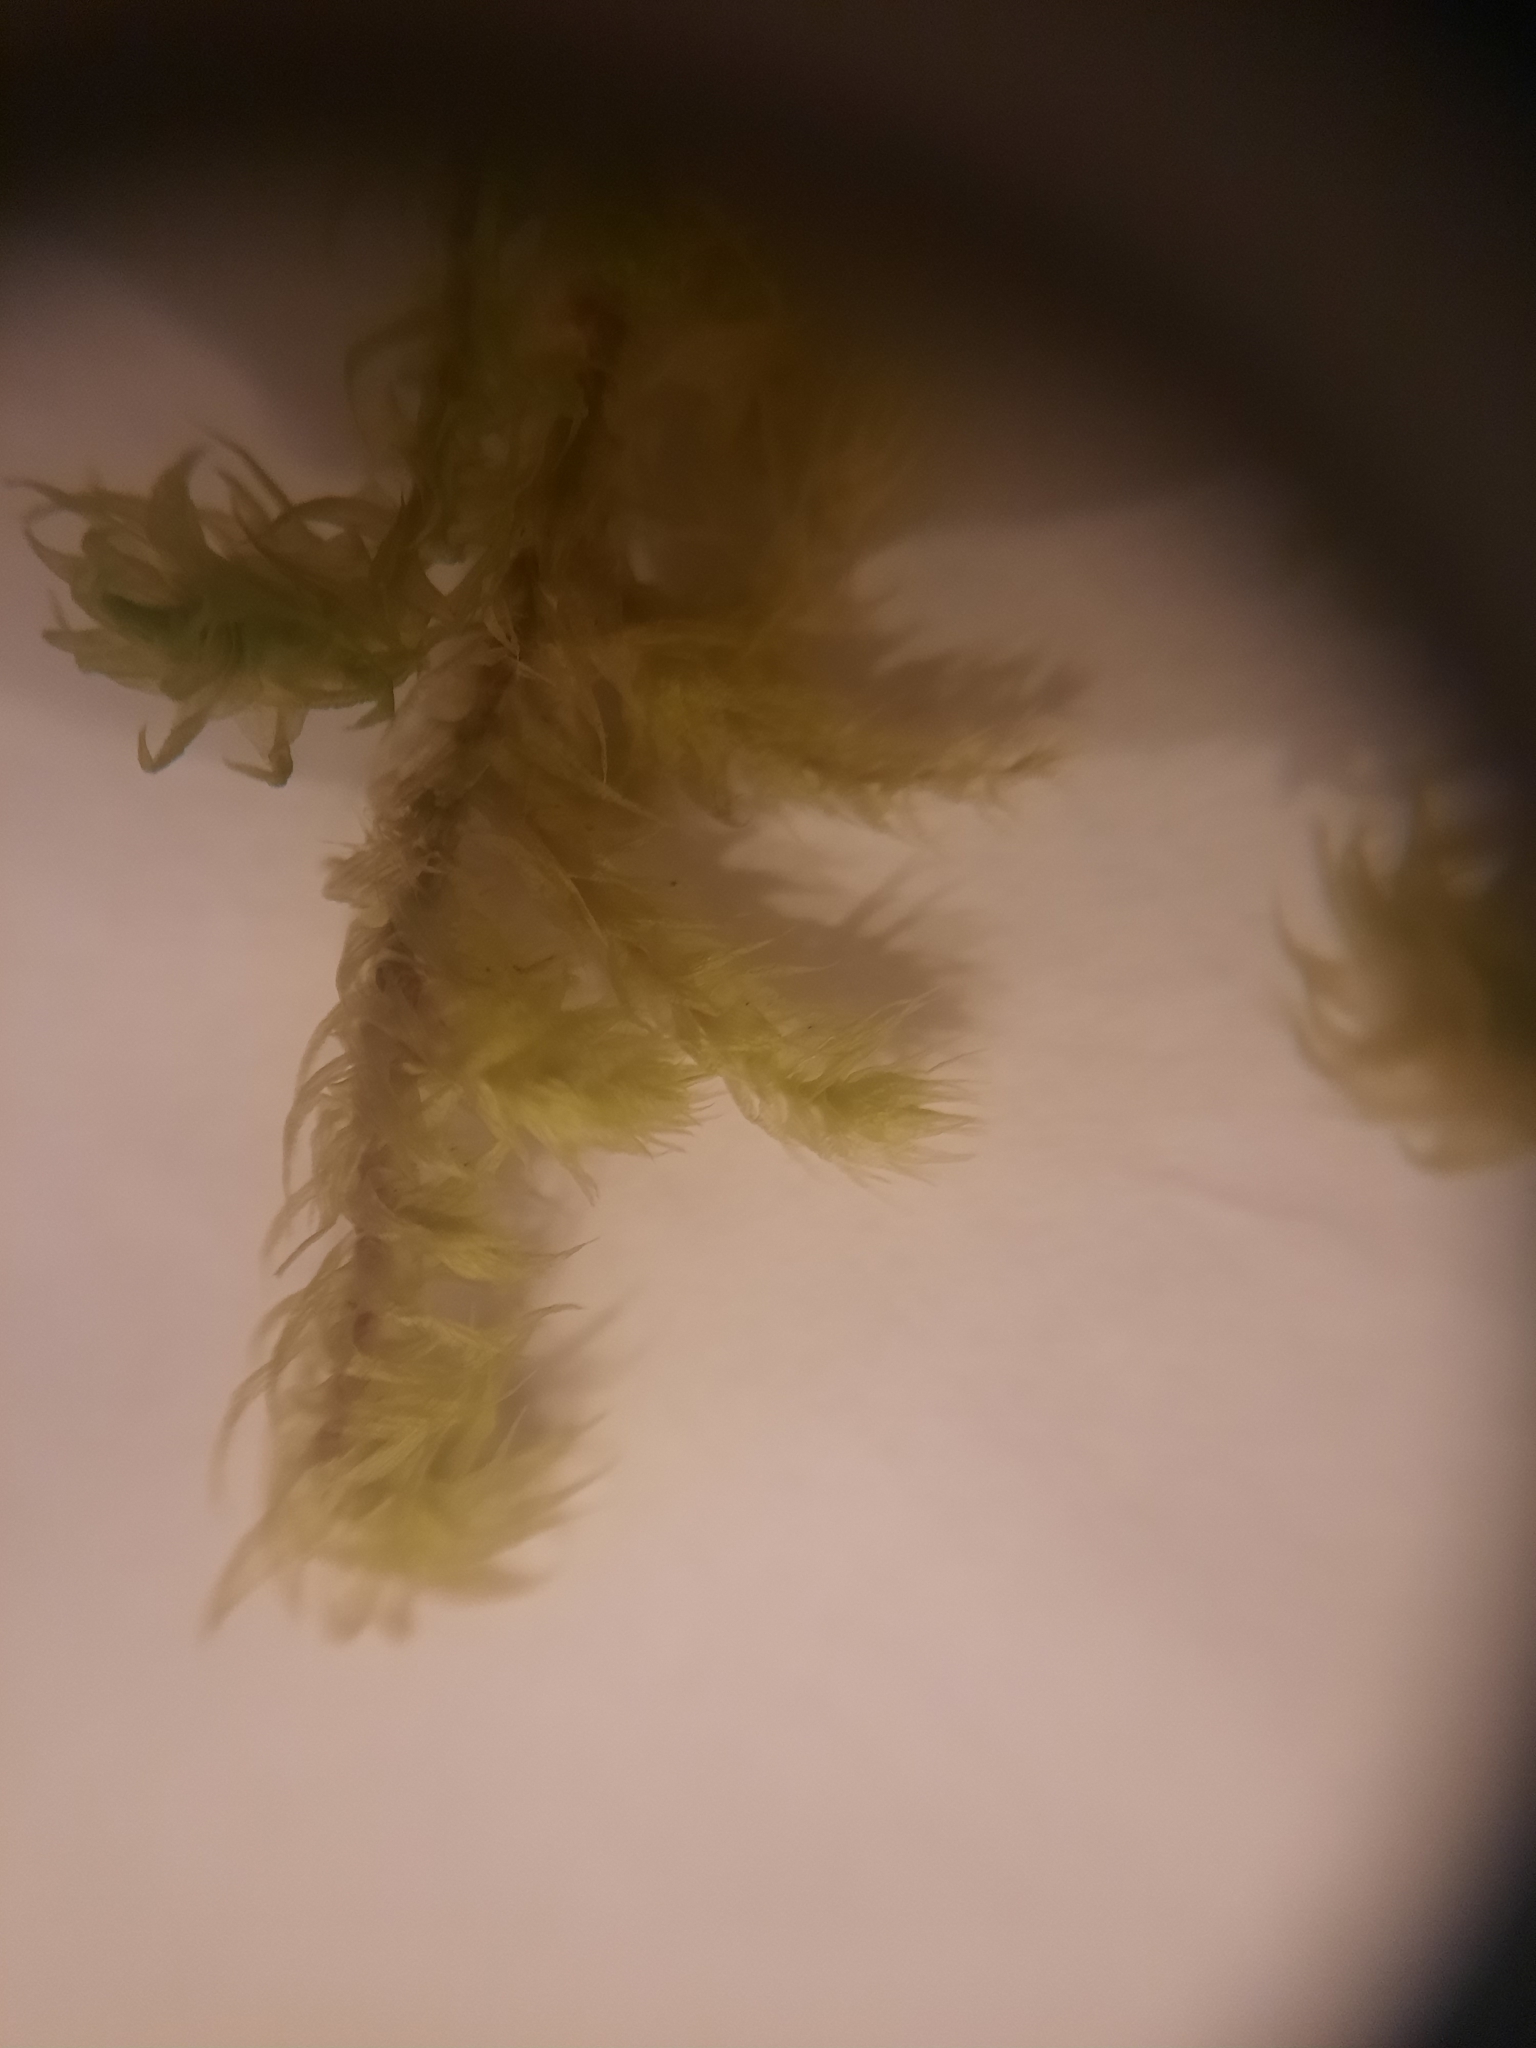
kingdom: Plantae
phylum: Bryophyta
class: Bryopsida
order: Hypnales
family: Hylocomiaceae
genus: Hylocomiadelphus
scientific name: Hylocomiadelphus triquetrus
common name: Rough goose neck moss
